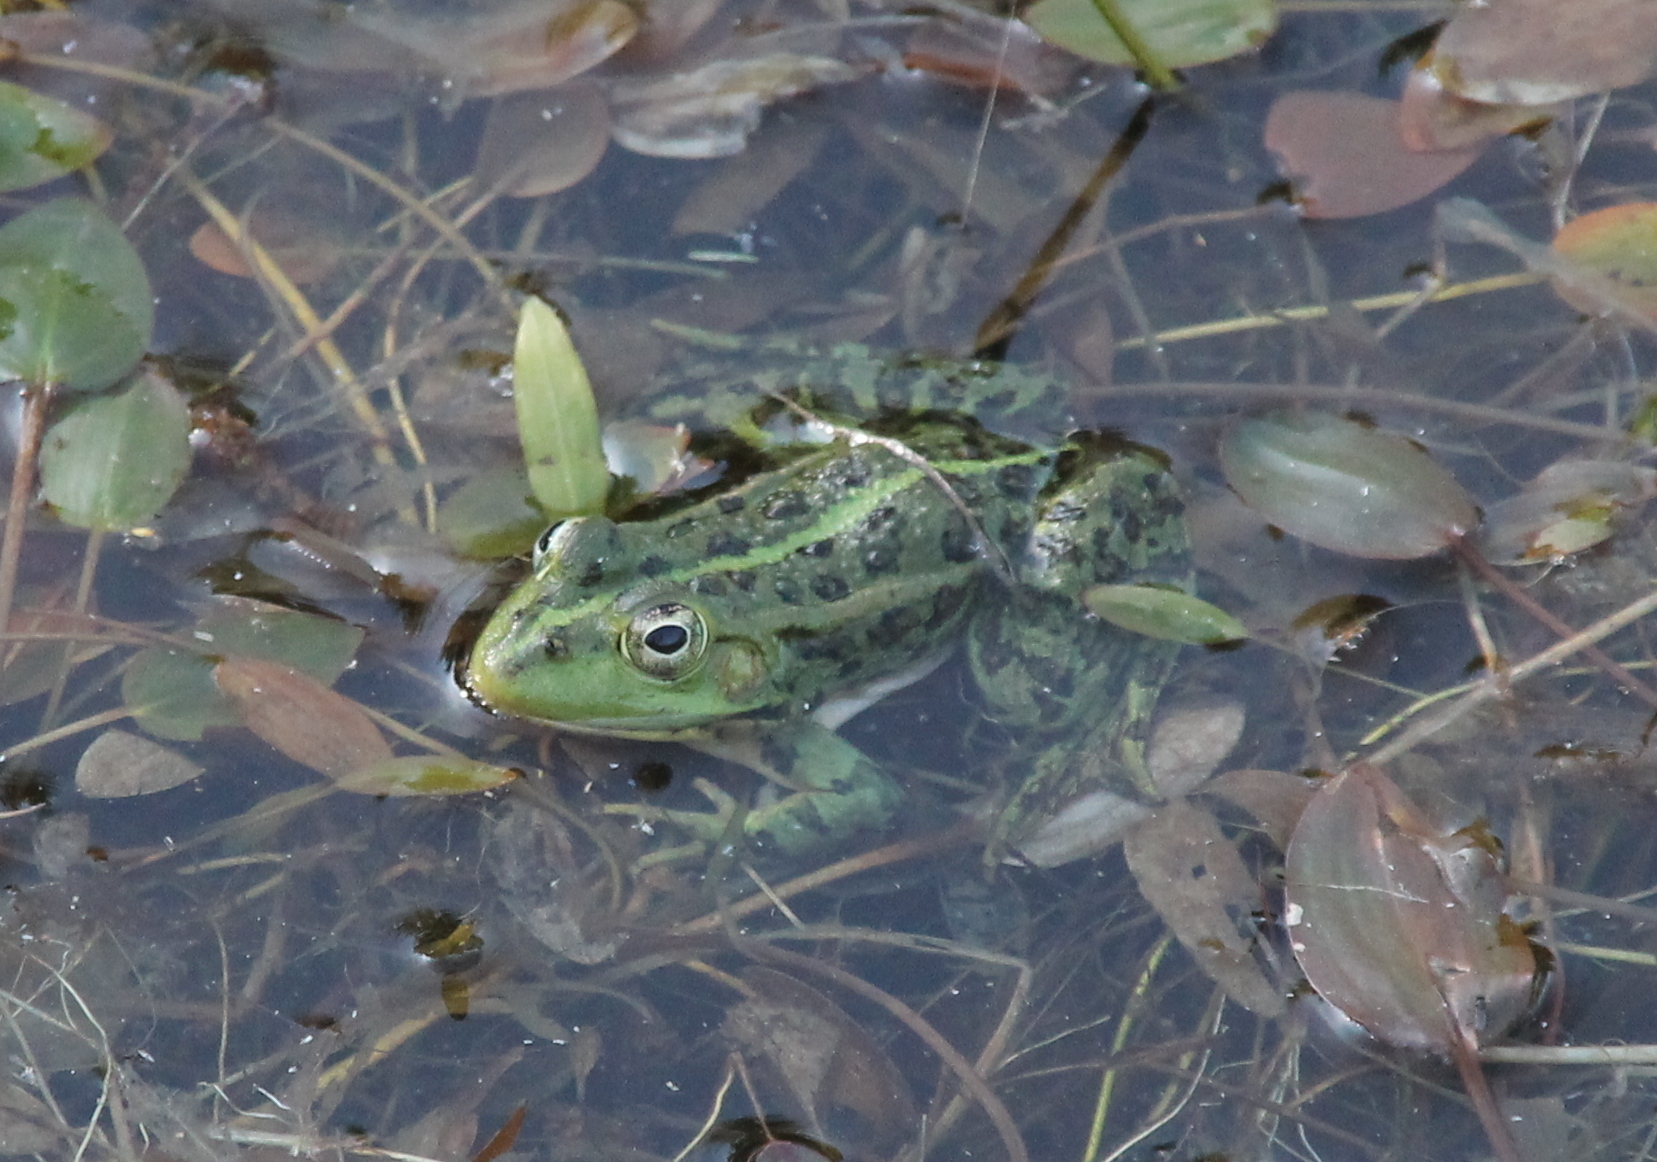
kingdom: Animalia
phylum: Chordata
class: Amphibia
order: Anura
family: Ranidae
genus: Pelophylax
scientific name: Pelophylax perezi
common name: Perez's frog
